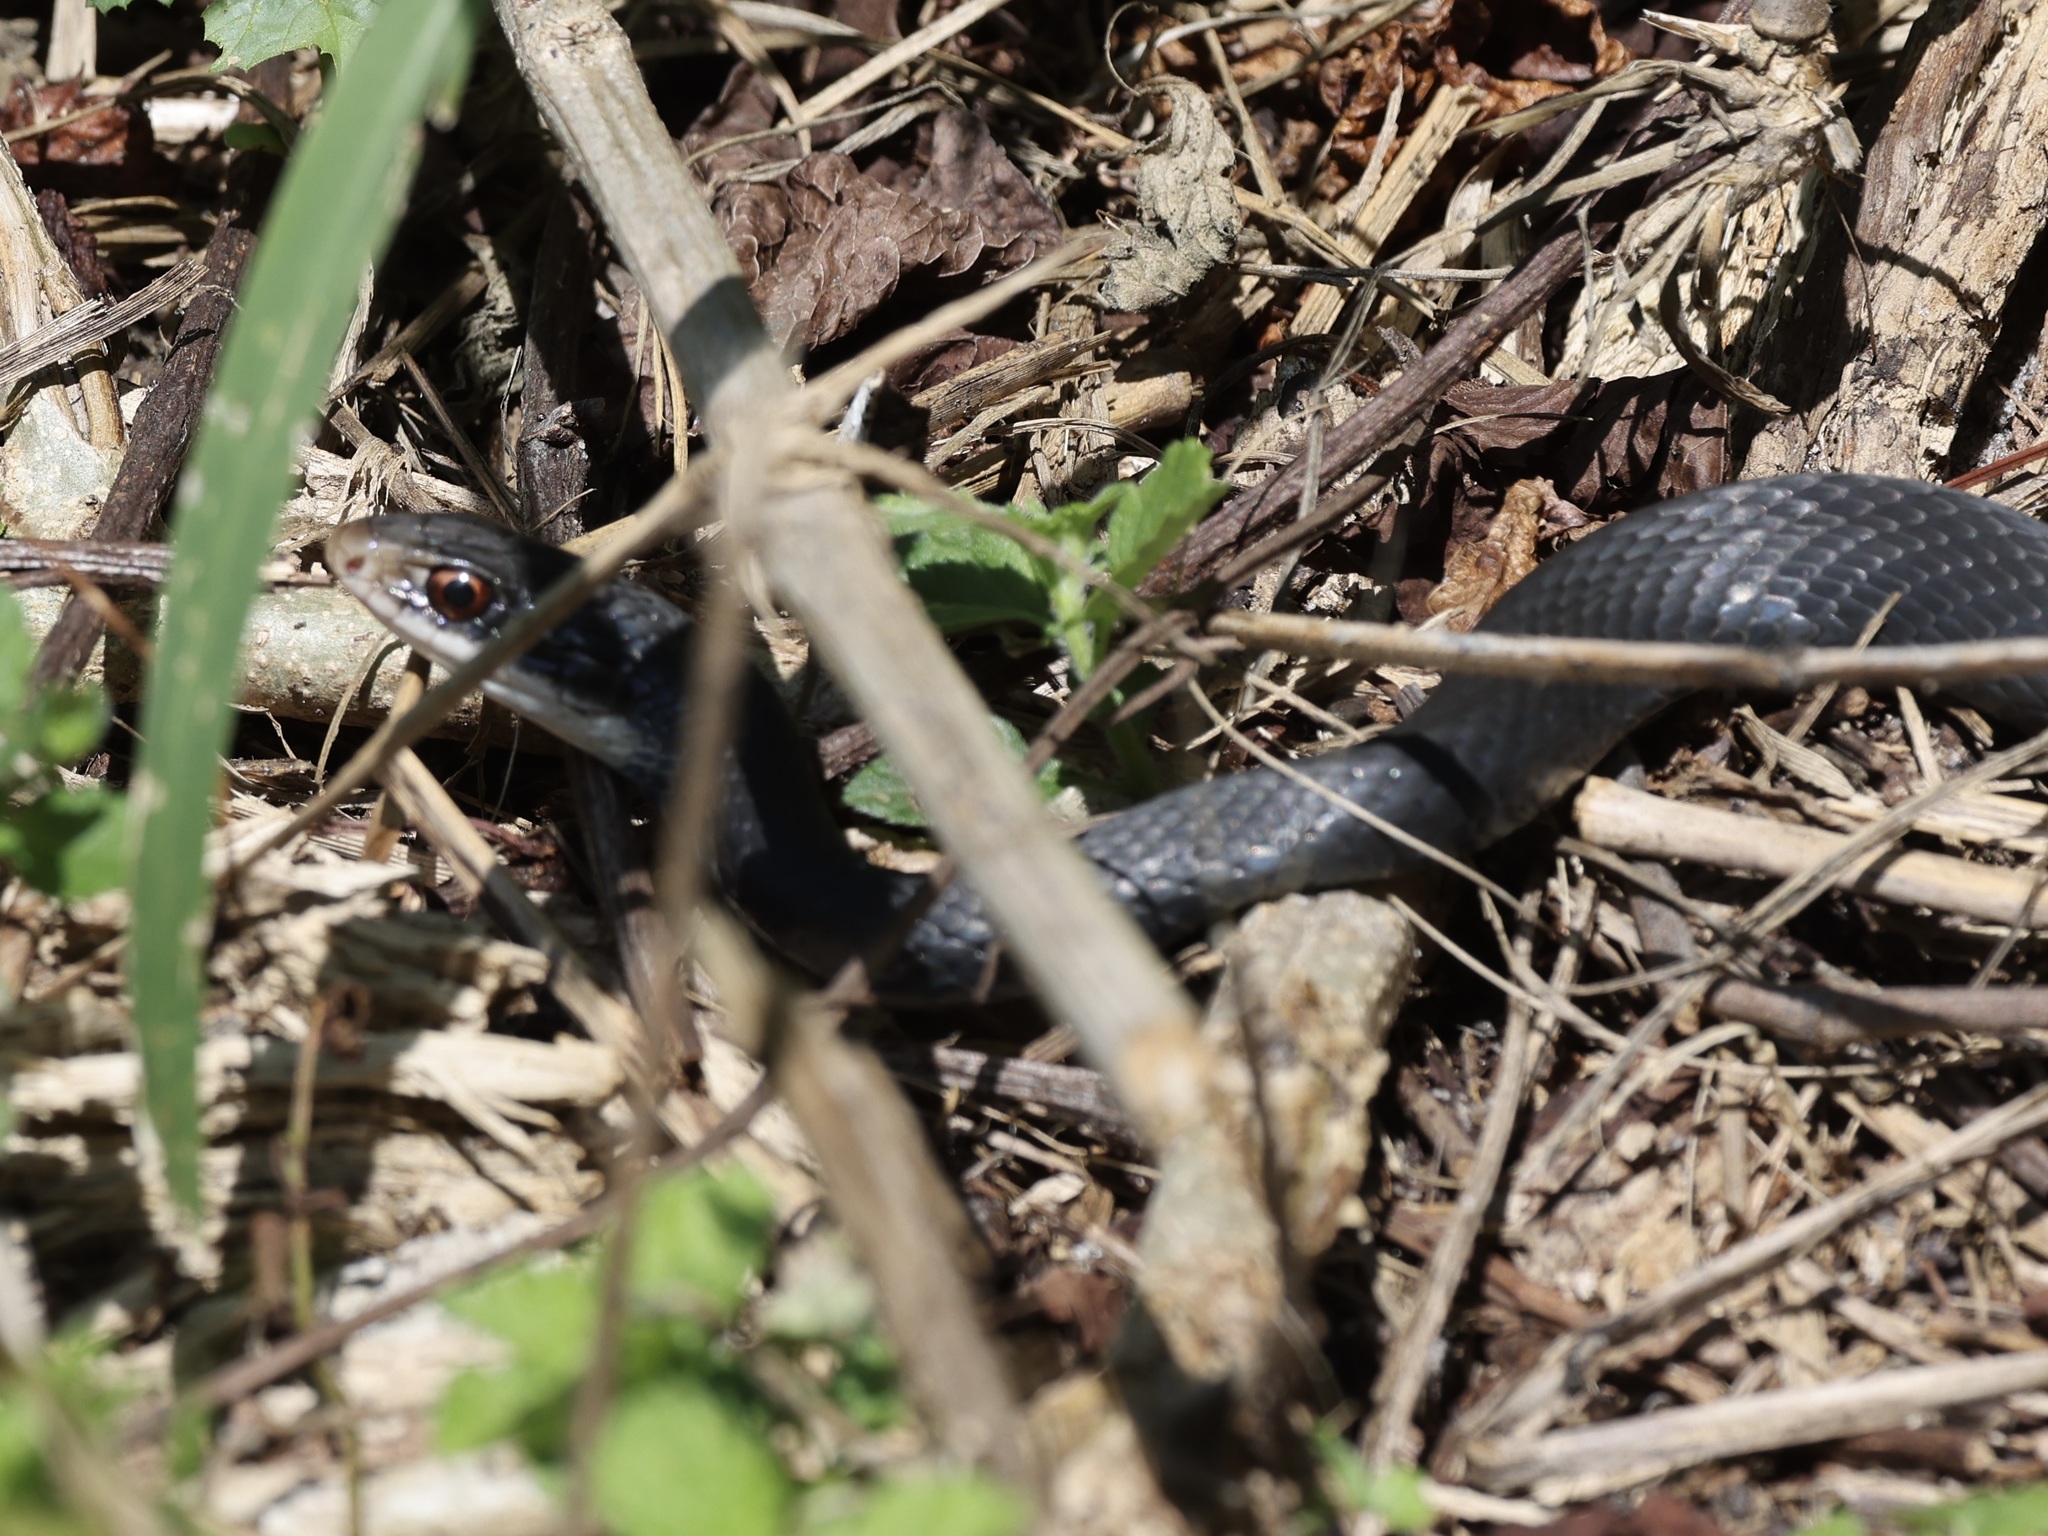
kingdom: Animalia
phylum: Chordata
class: Squamata
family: Colubridae
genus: Coluber
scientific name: Coluber constrictor
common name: Eastern racer
